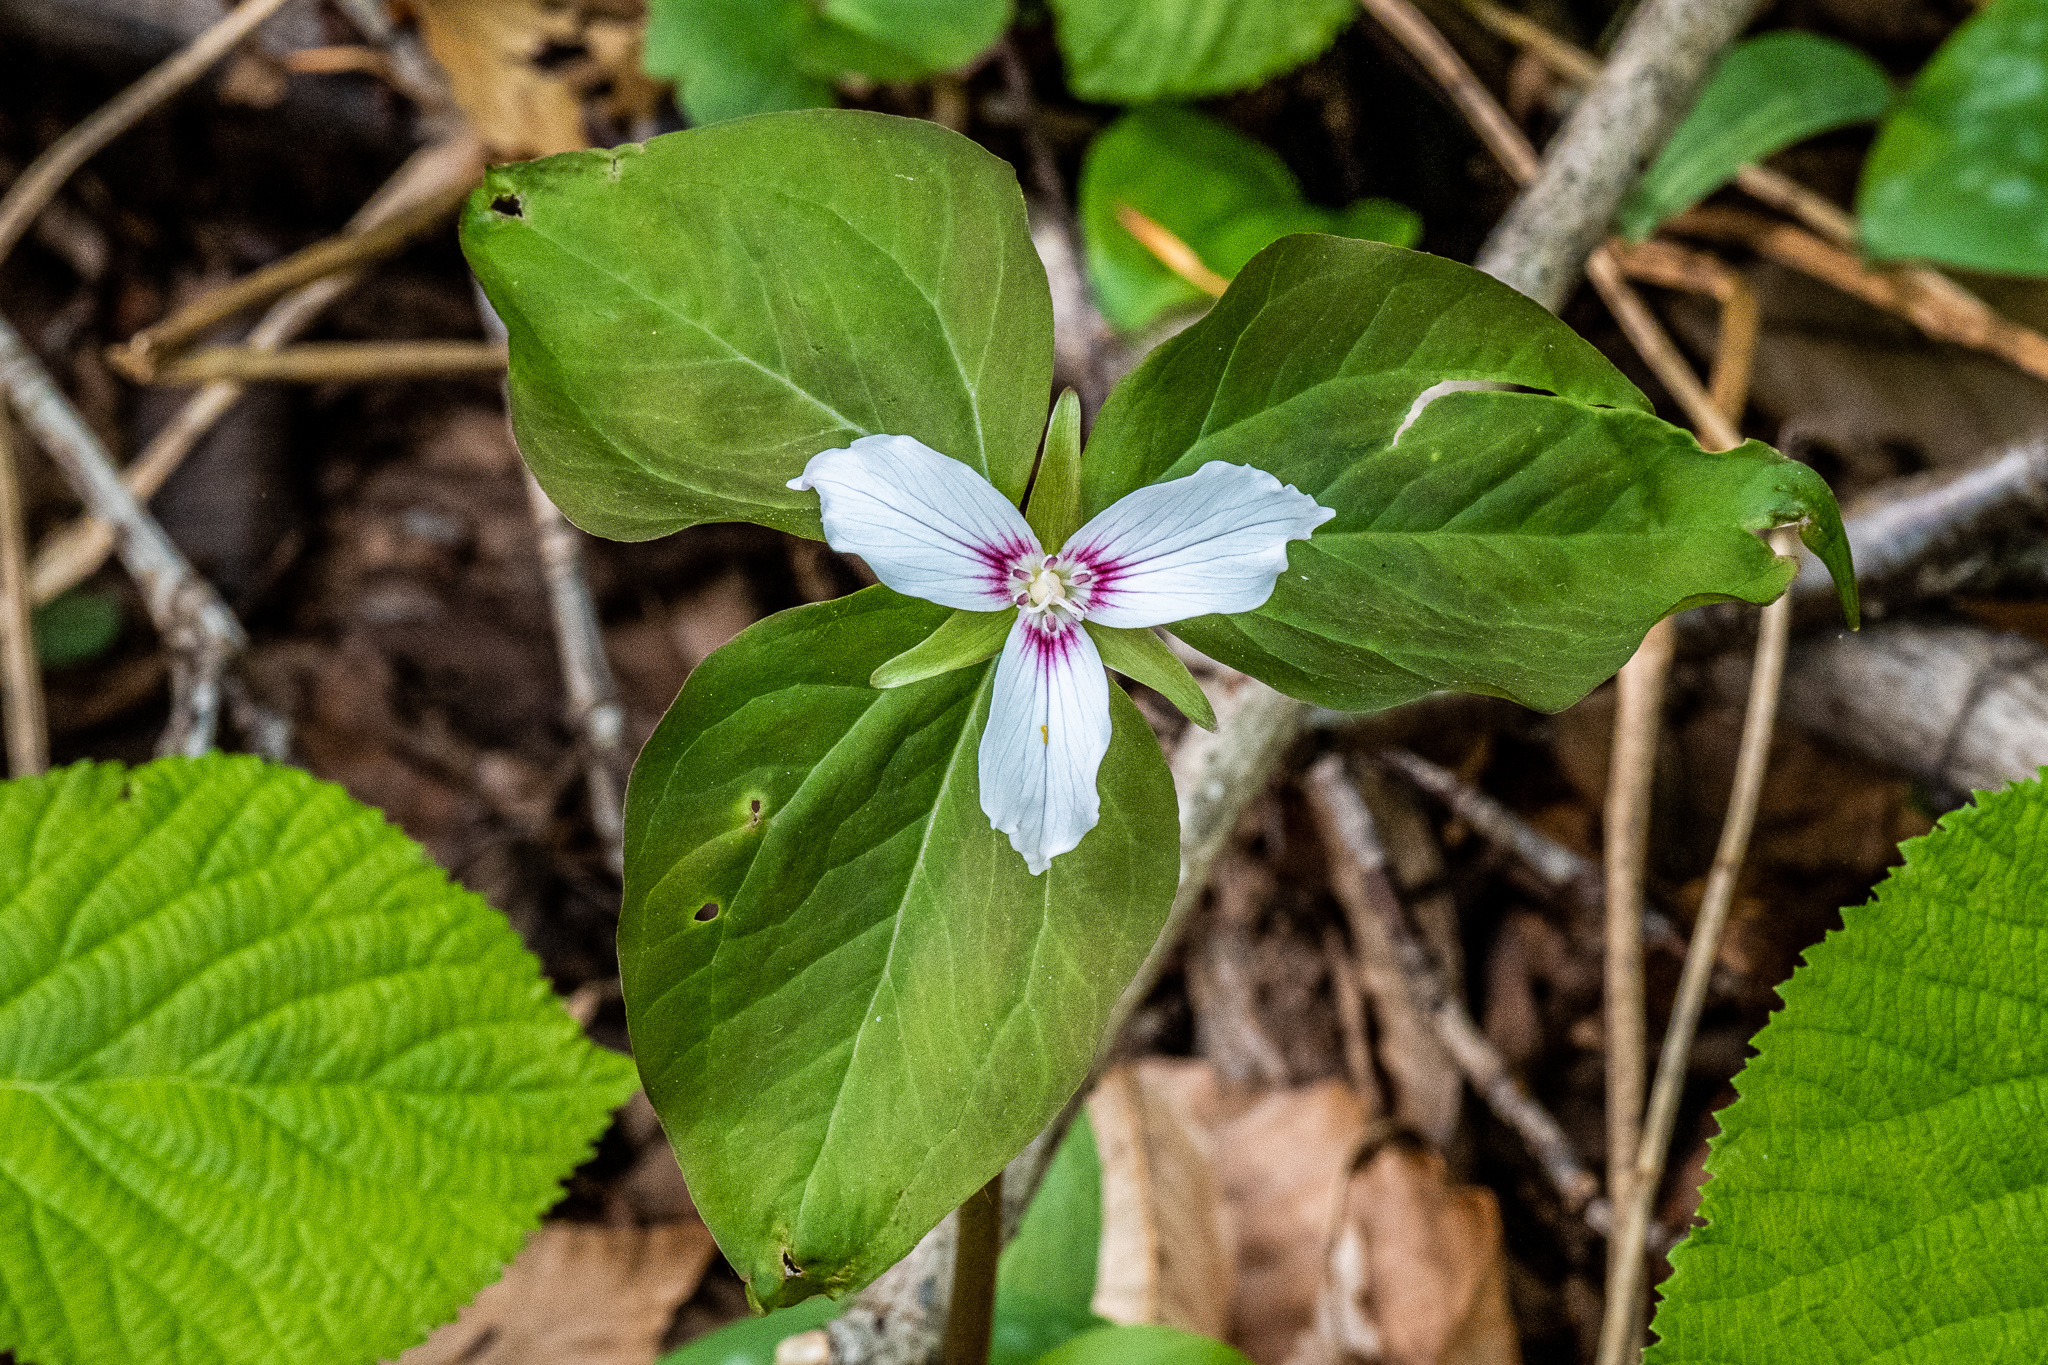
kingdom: Plantae
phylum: Tracheophyta
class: Liliopsida
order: Liliales
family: Melanthiaceae
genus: Trillium
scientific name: Trillium undulatum
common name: Paint trillium
